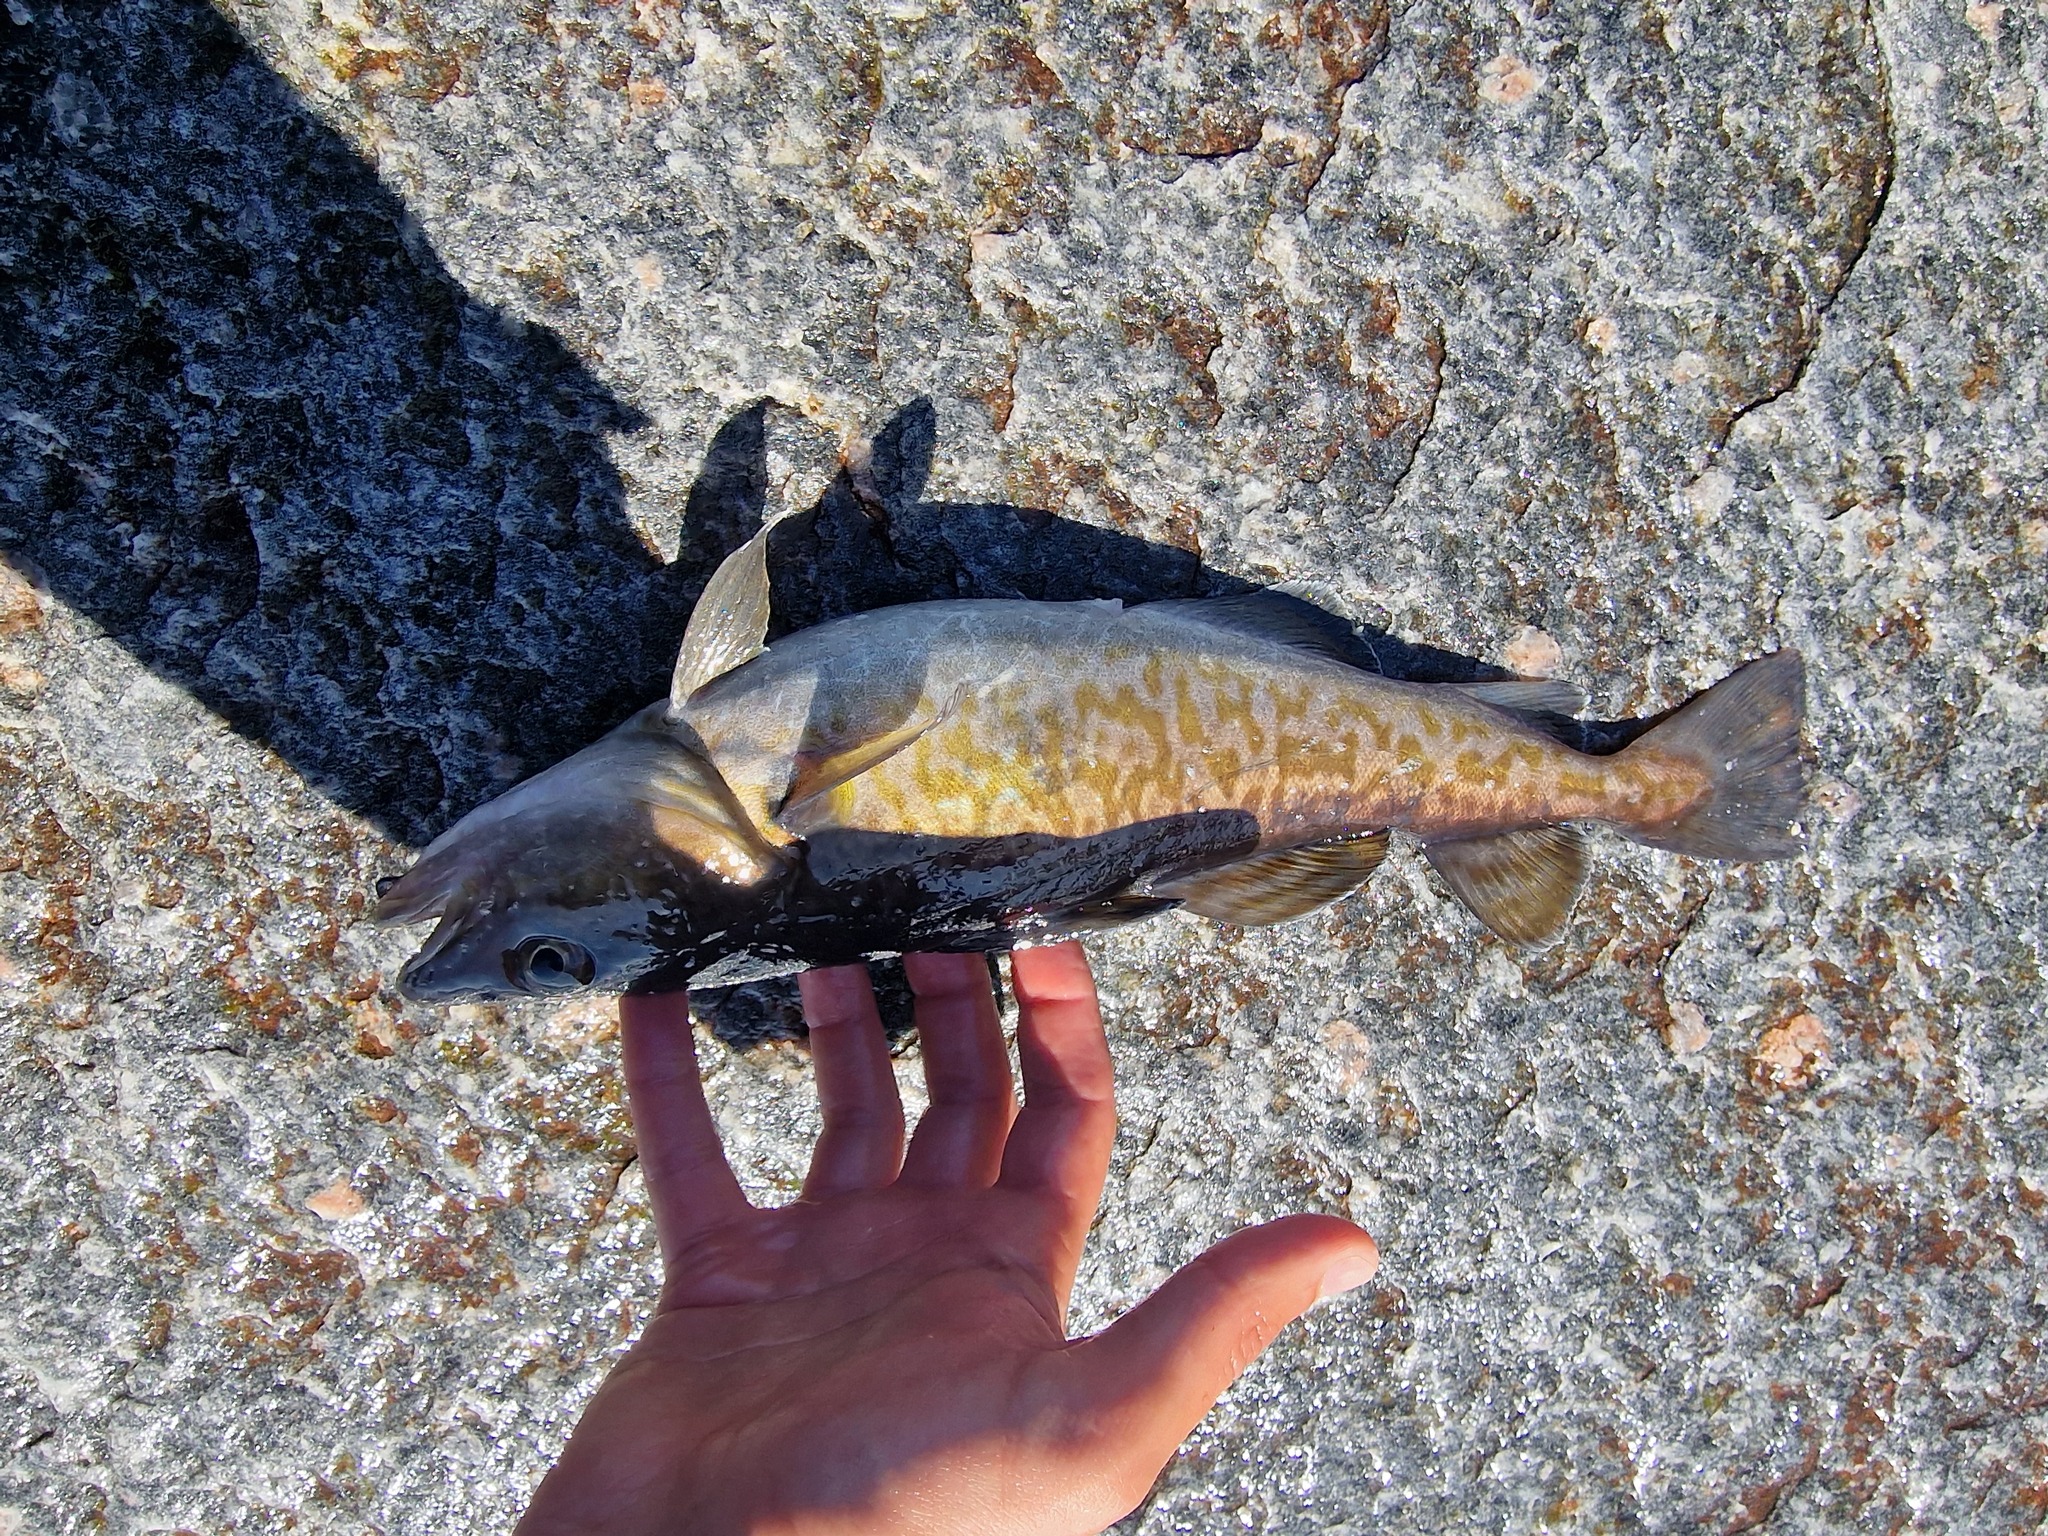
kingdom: Animalia
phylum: Chordata
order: Gadiformes
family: Gadidae
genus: Gadus
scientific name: Gadus macrocephalus
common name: Pacific cod
